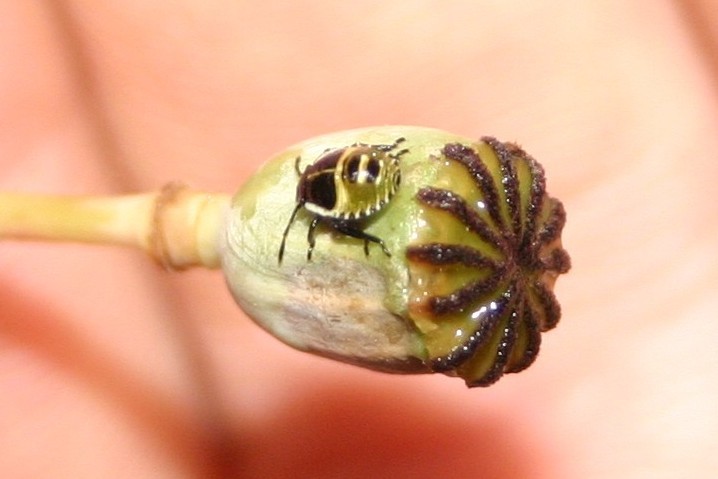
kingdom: Animalia
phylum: Arthropoda
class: Insecta
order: Hemiptera
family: Pentatomidae
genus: Palomena
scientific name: Palomena prasina
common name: Green shieldbug
